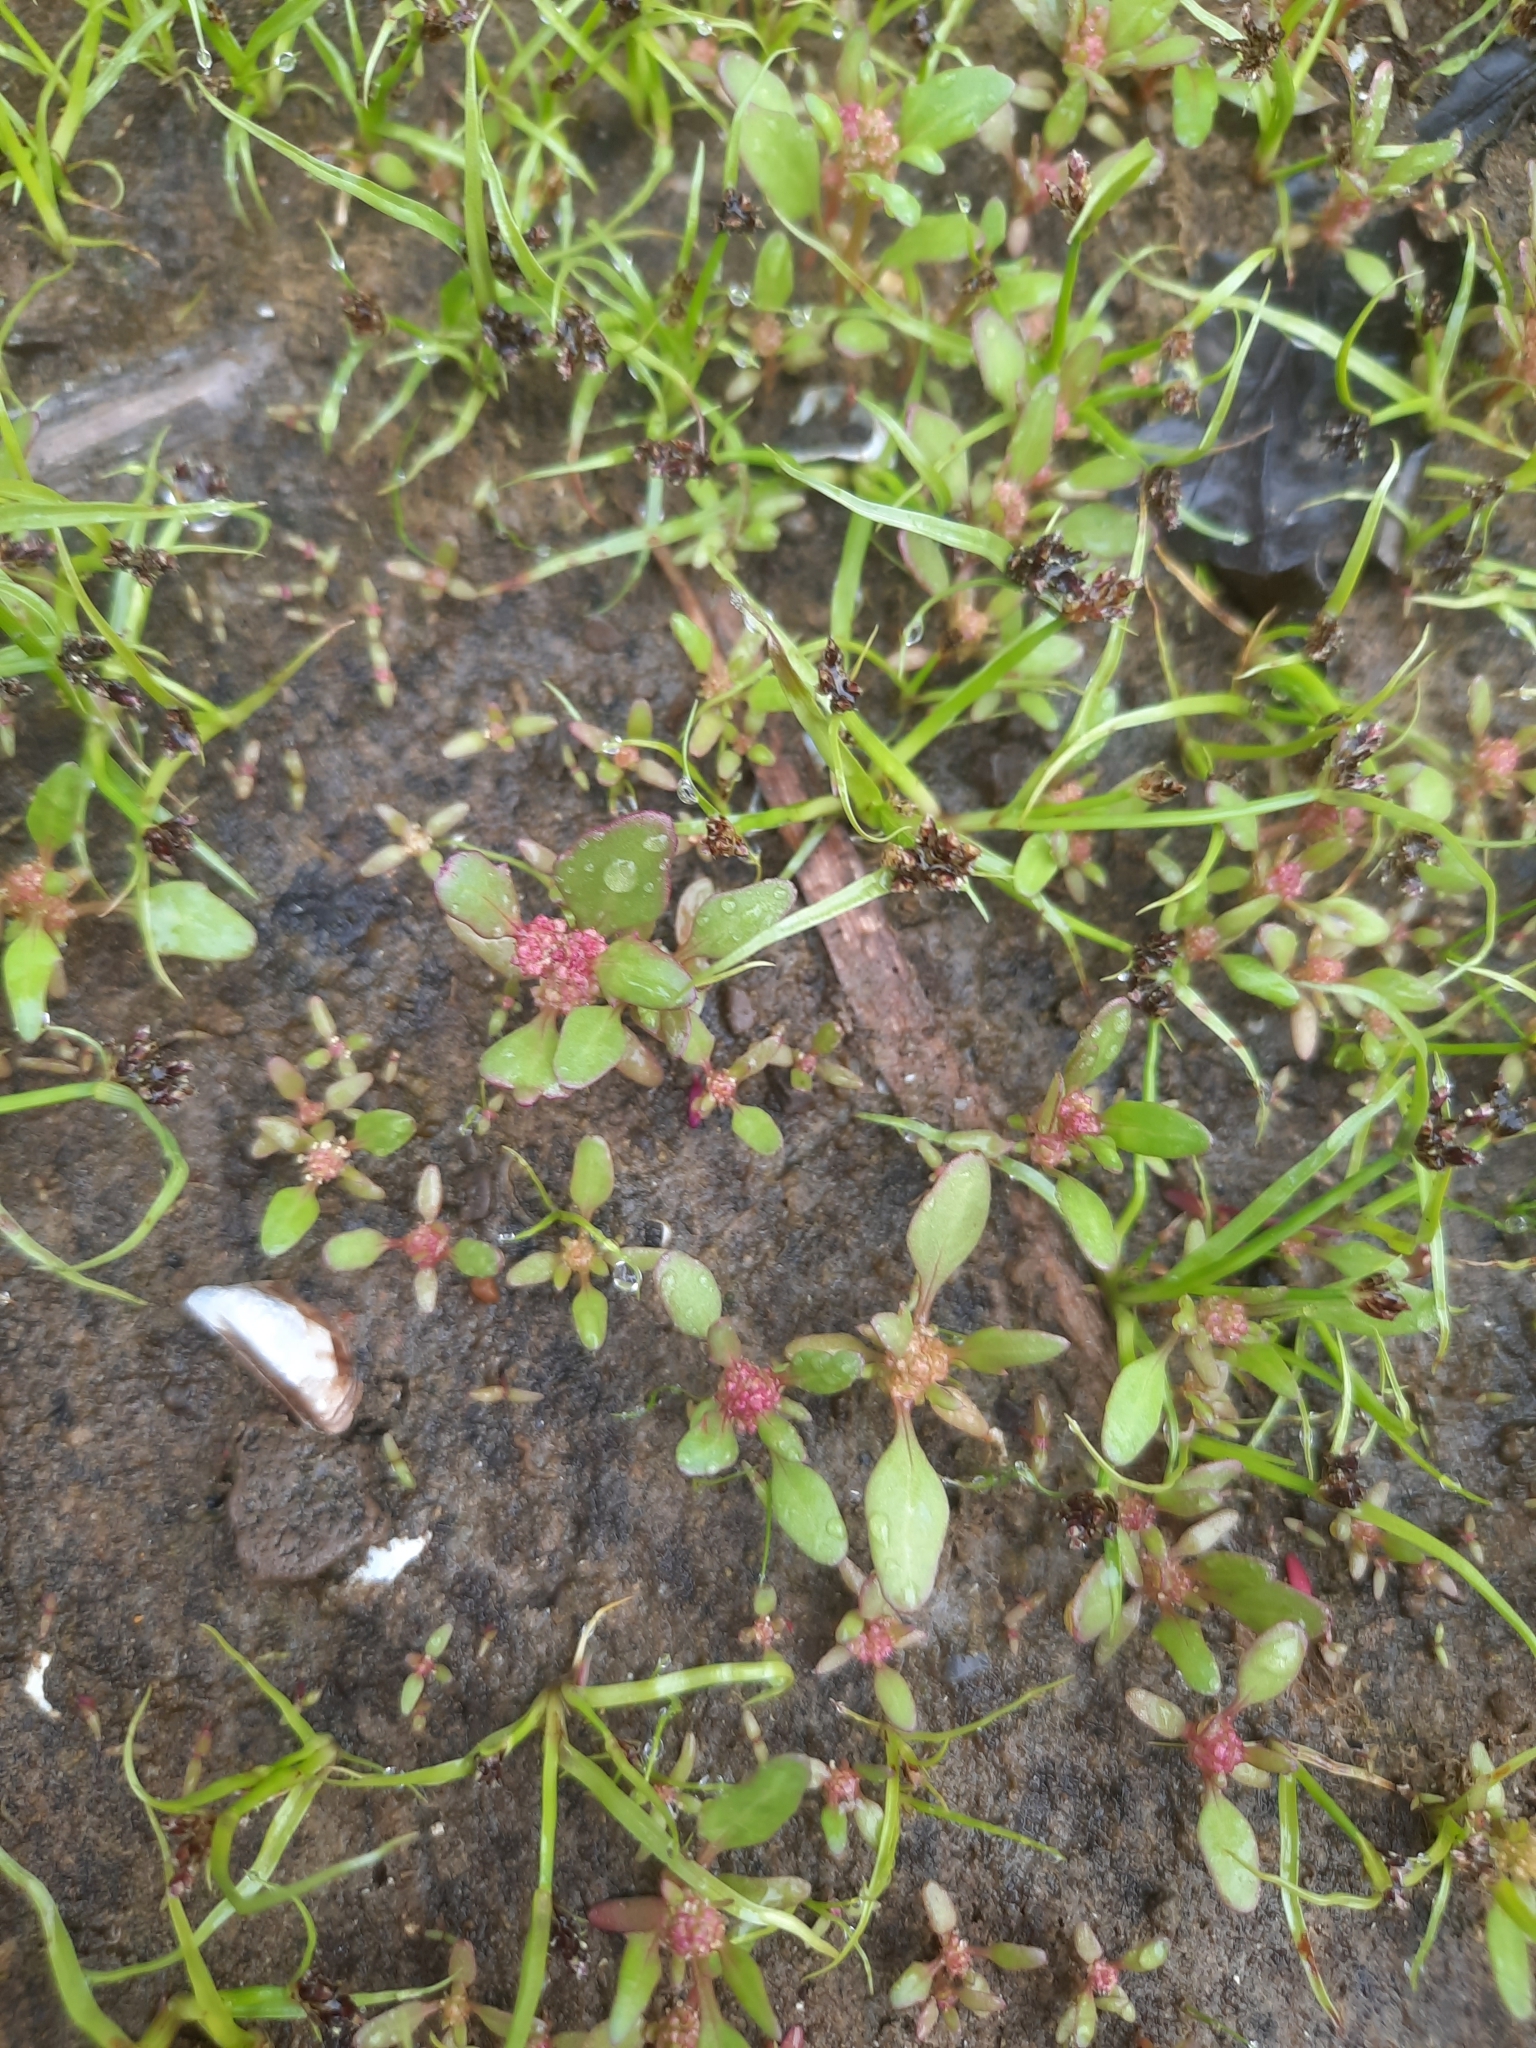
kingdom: Plantae
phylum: Tracheophyta
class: Magnoliopsida
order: Caryophyllales
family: Amaranthaceae
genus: Oxybasis
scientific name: Oxybasis rubra
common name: Red goosefoot
